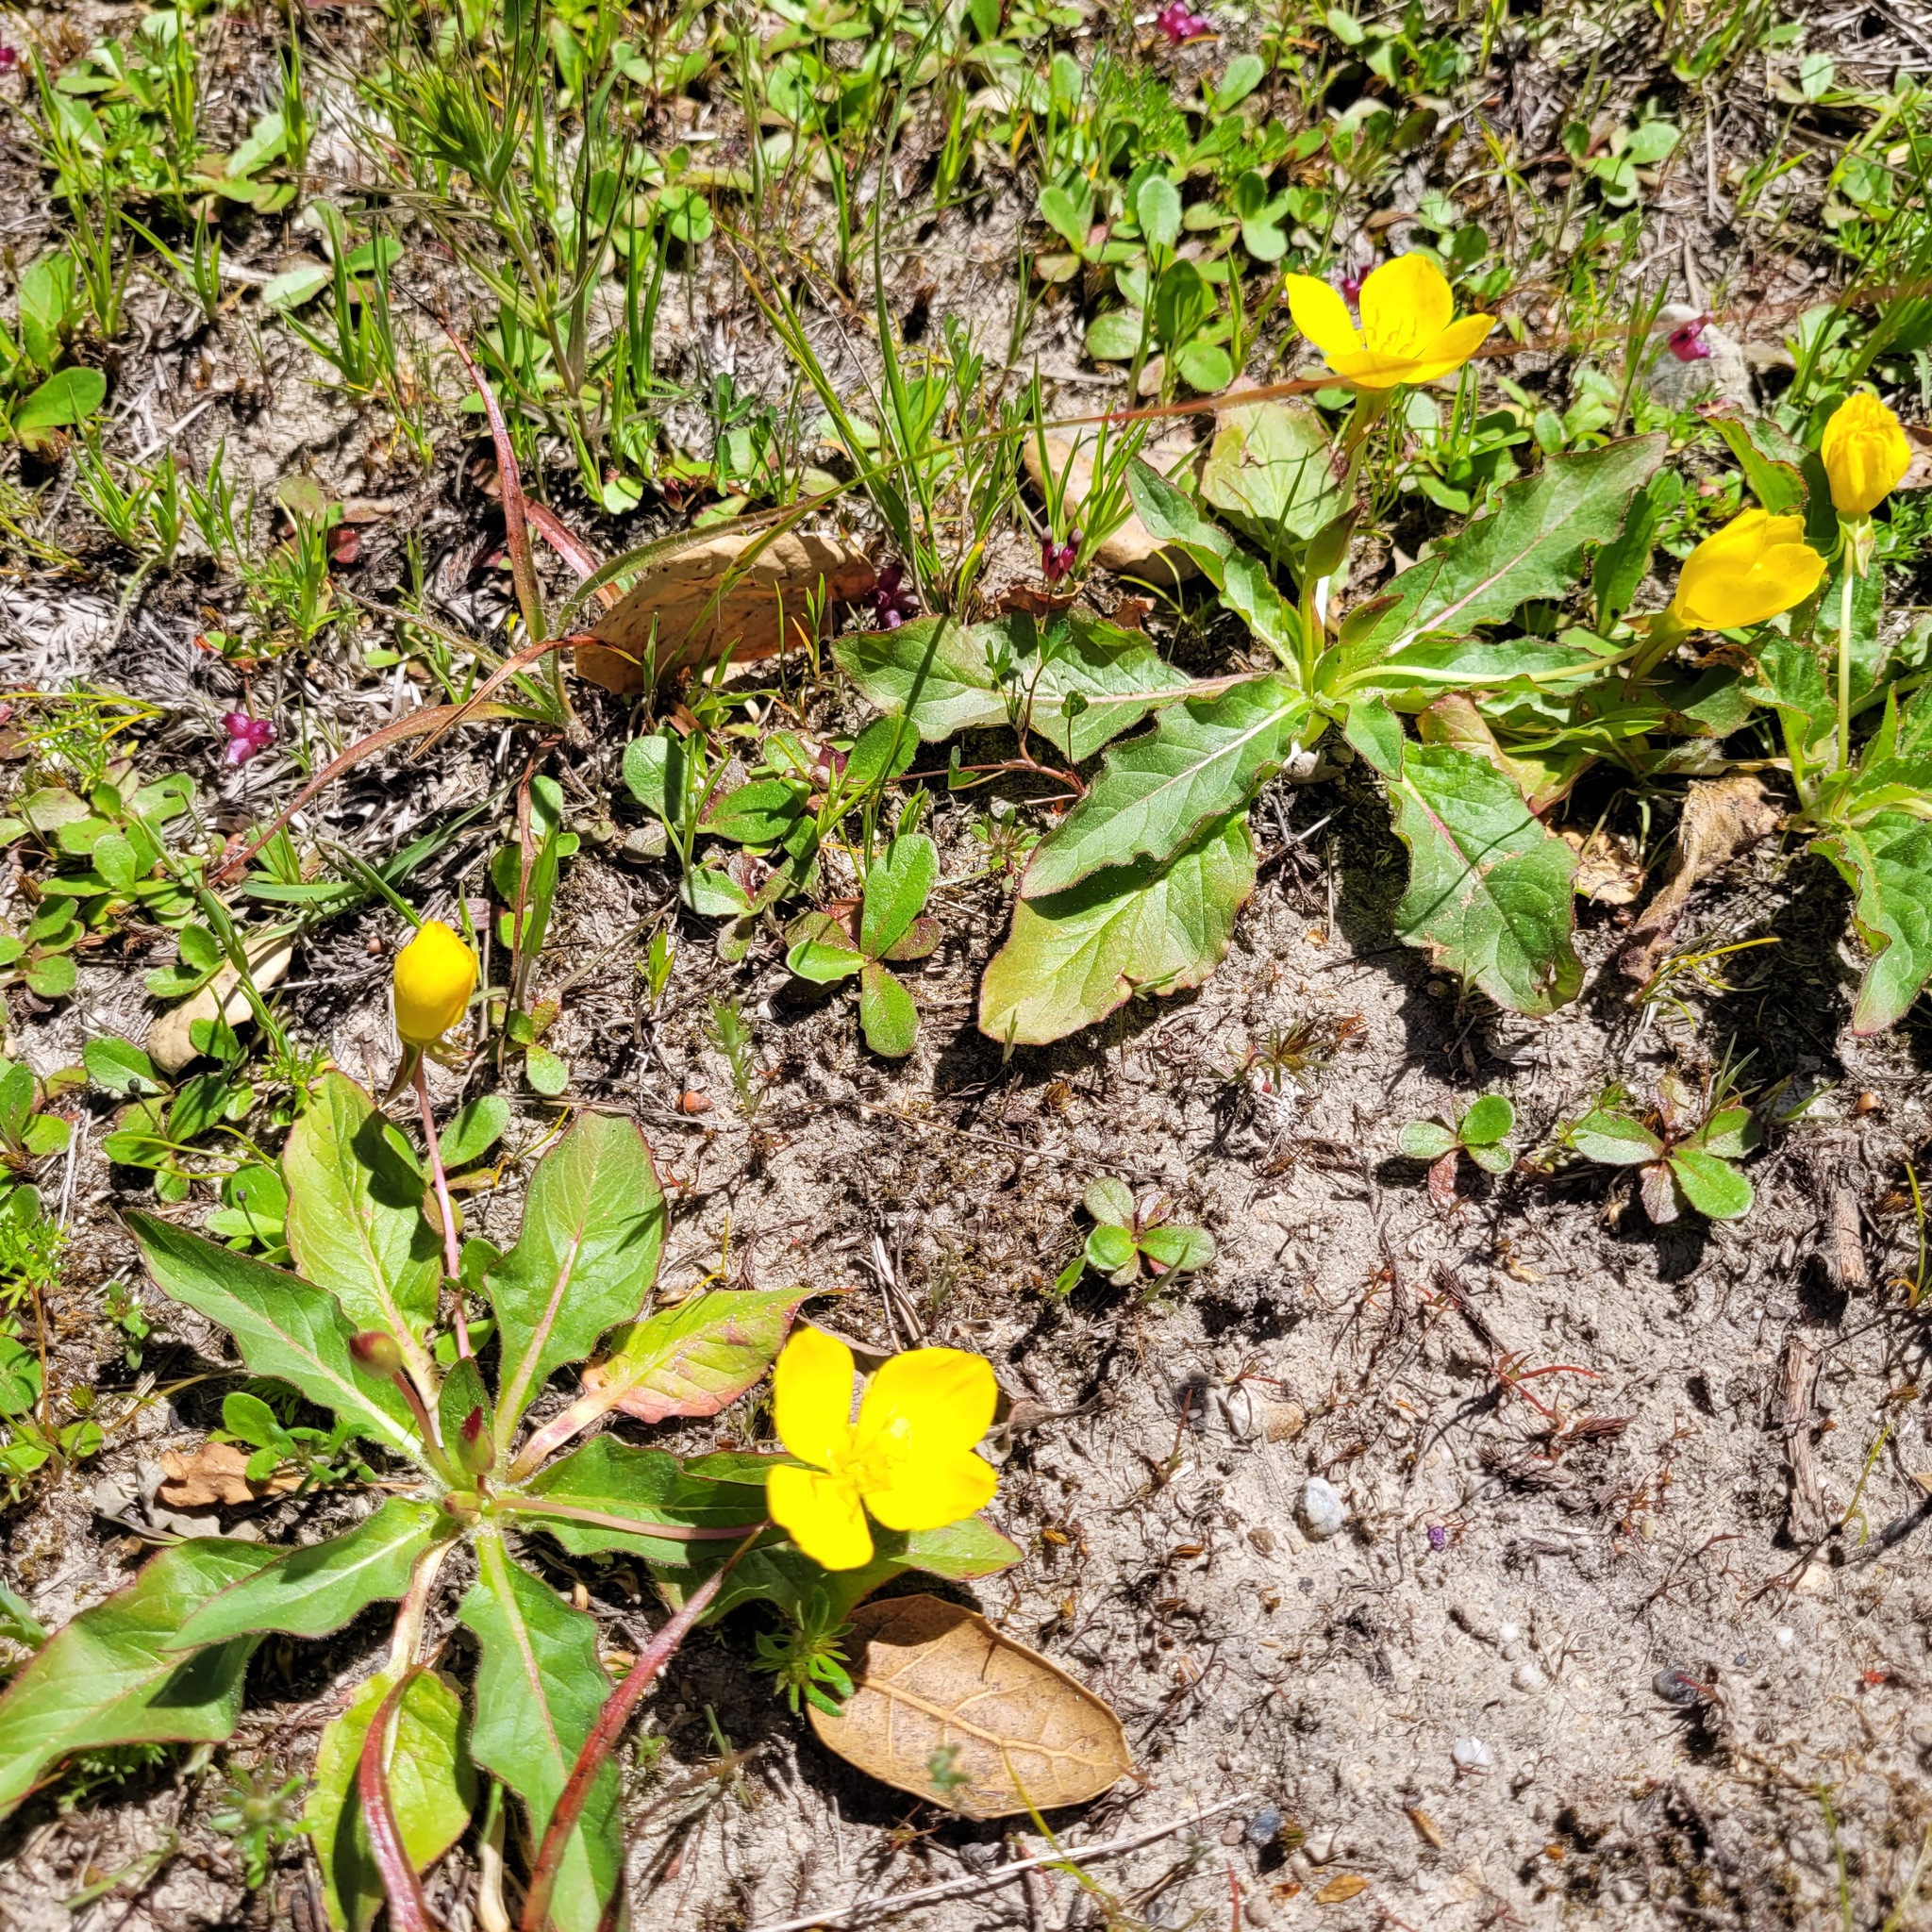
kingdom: Plantae
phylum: Tracheophyta
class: Magnoliopsida
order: Myrtales
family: Onagraceae
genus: Taraxia
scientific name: Taraxia ovata
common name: Goldeneggs
